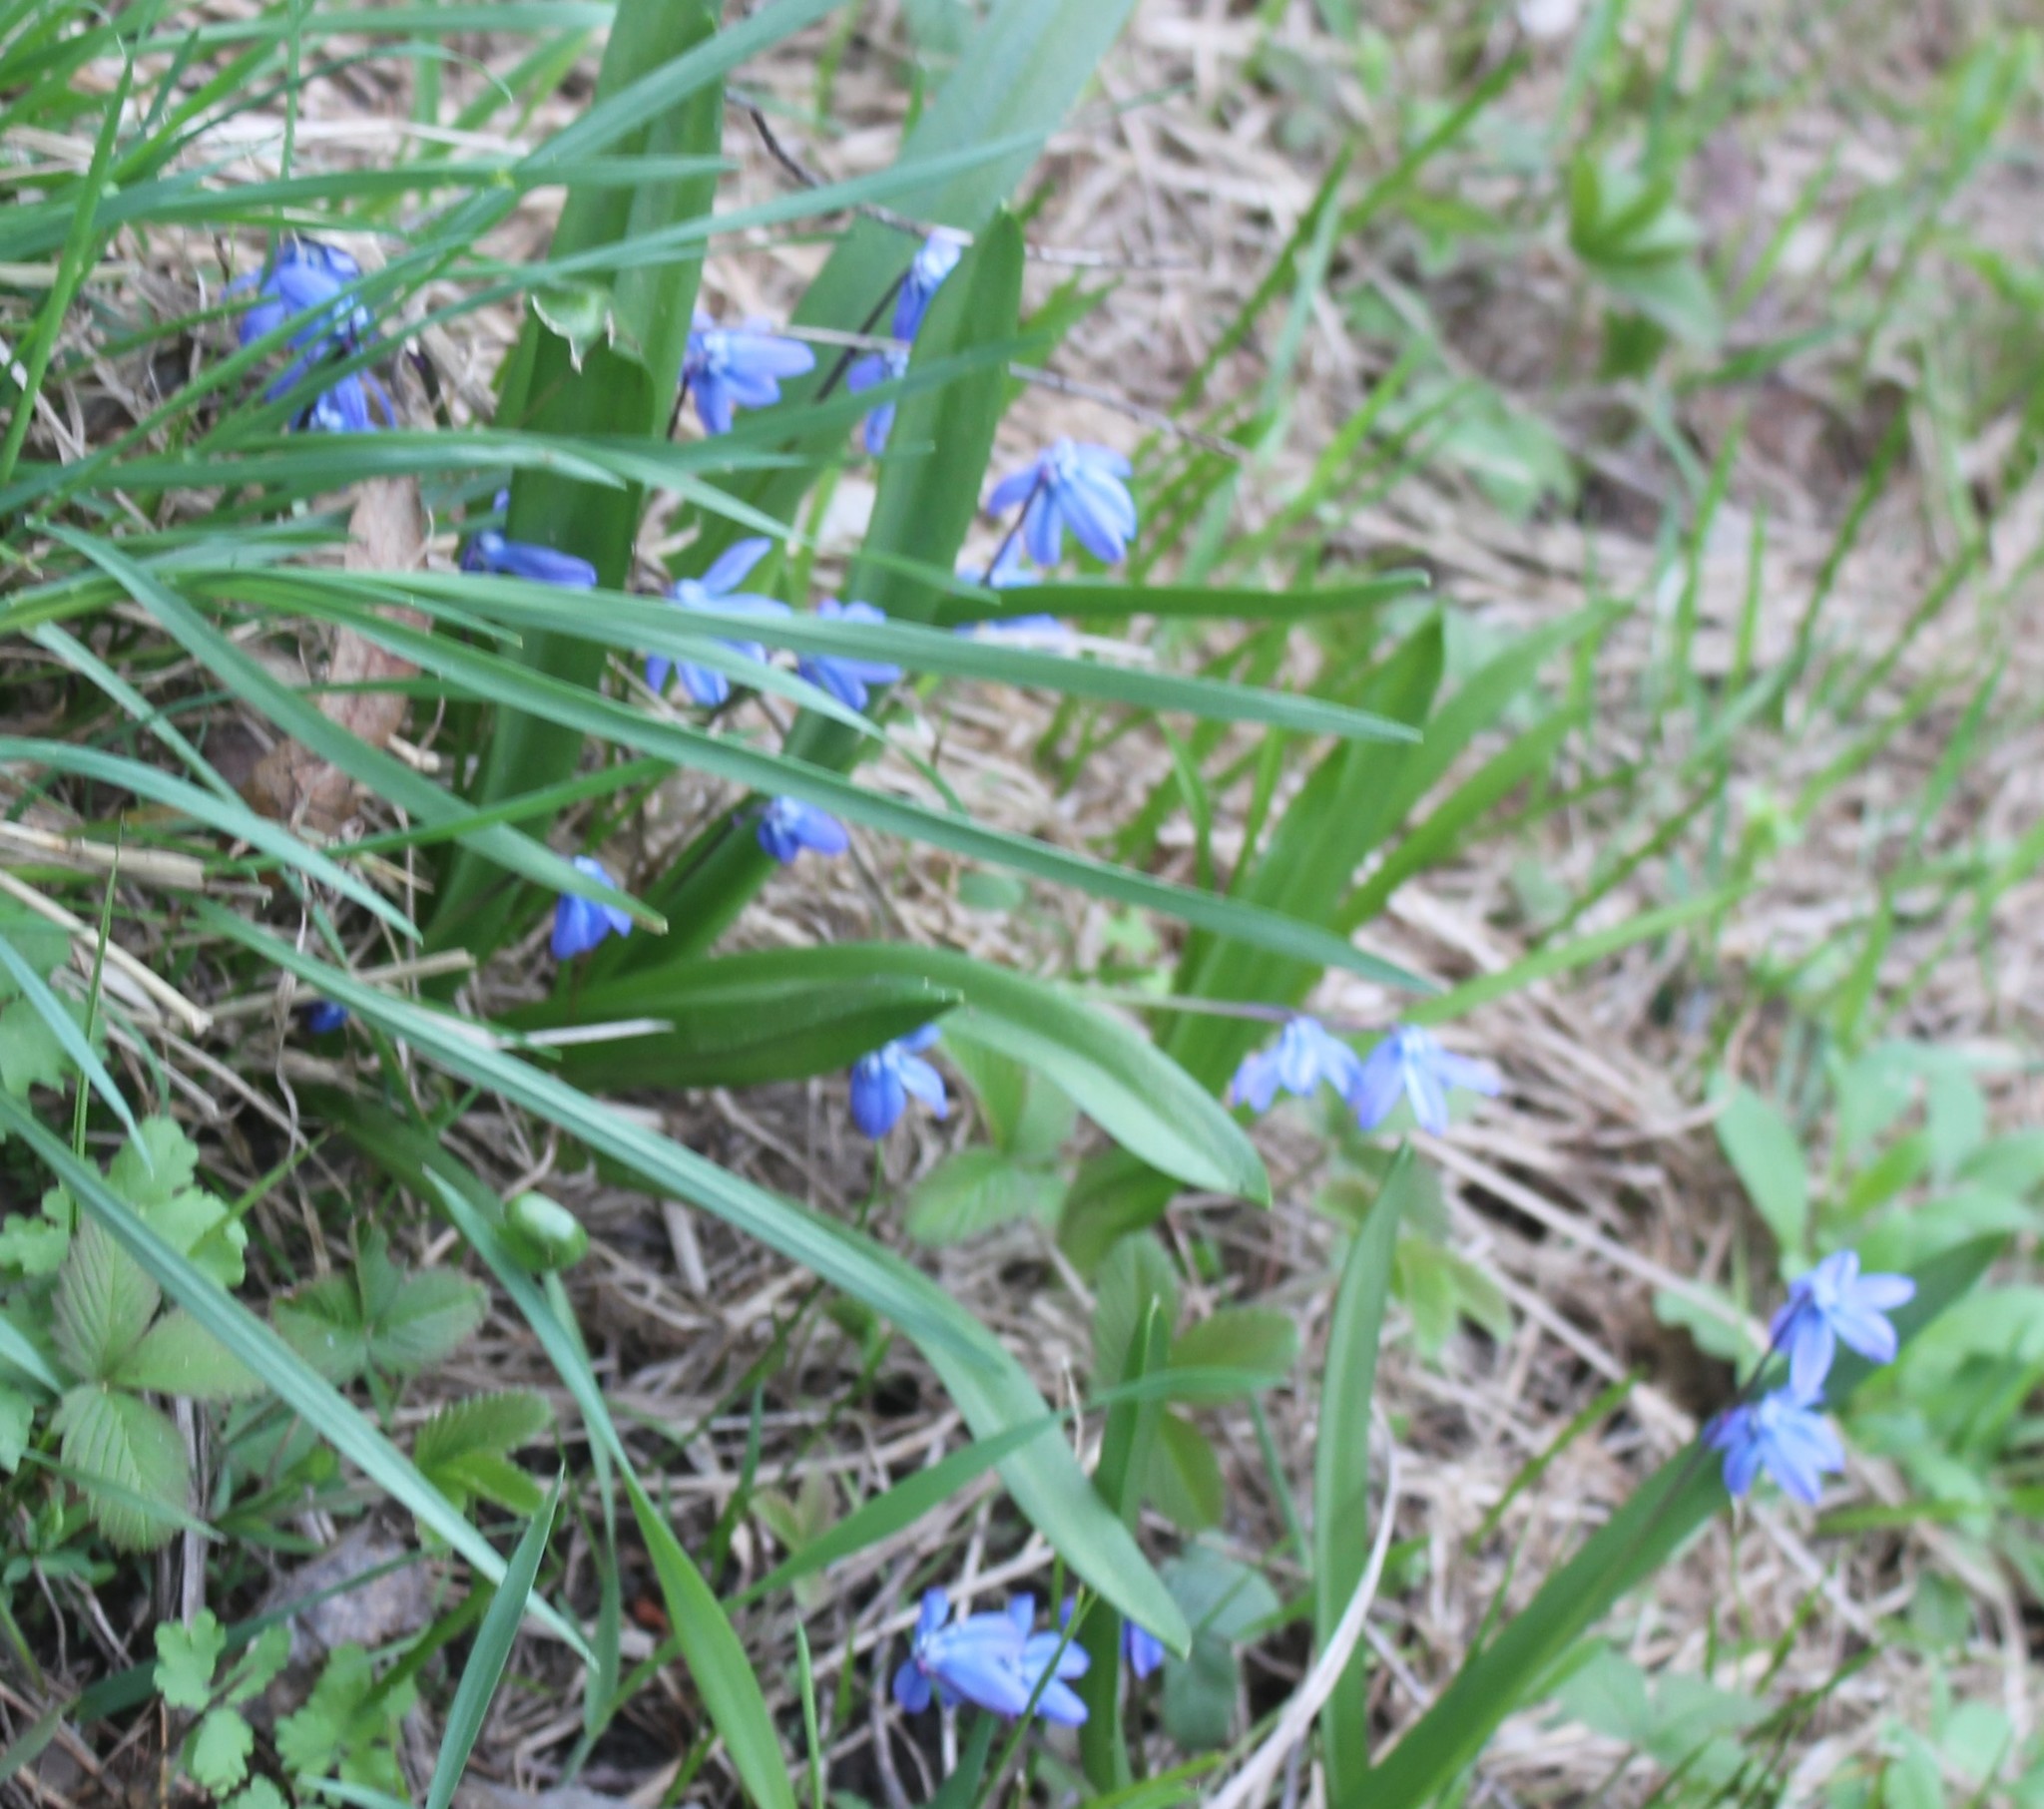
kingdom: Plantae
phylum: Tracheophyta
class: Liliopsida
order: Asparagales
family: Asparagaceae
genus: Scilla
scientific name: Scilla siberica
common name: Siberian squill
